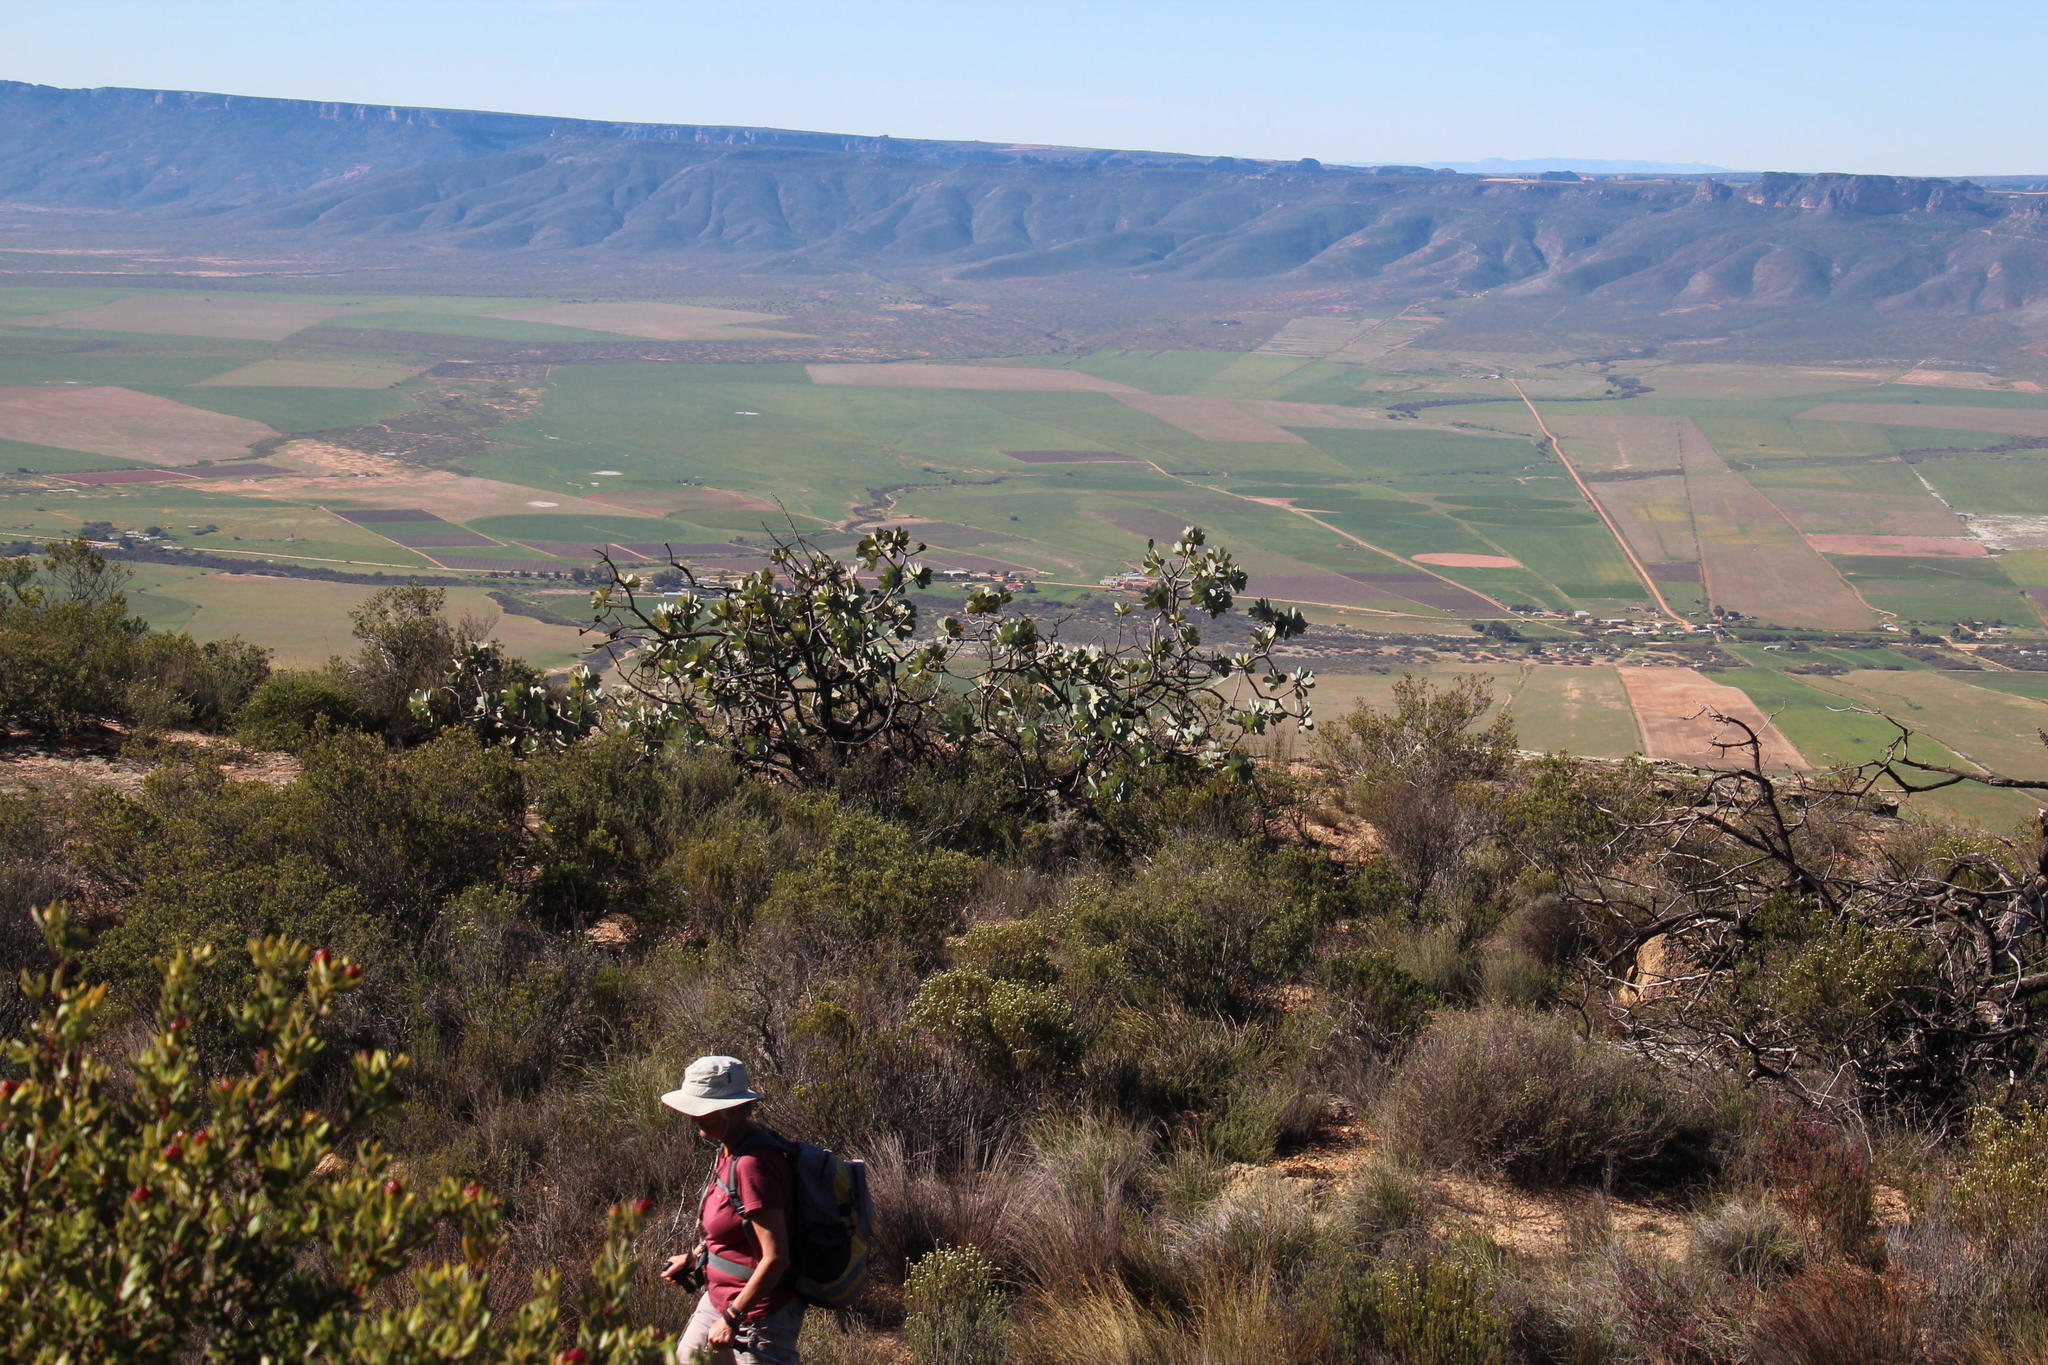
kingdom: Plantae
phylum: Tracheophyta
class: Magnoliopsida
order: Proteales
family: Proteaceae
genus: Protea
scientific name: Protea nitida
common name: Tree protea
